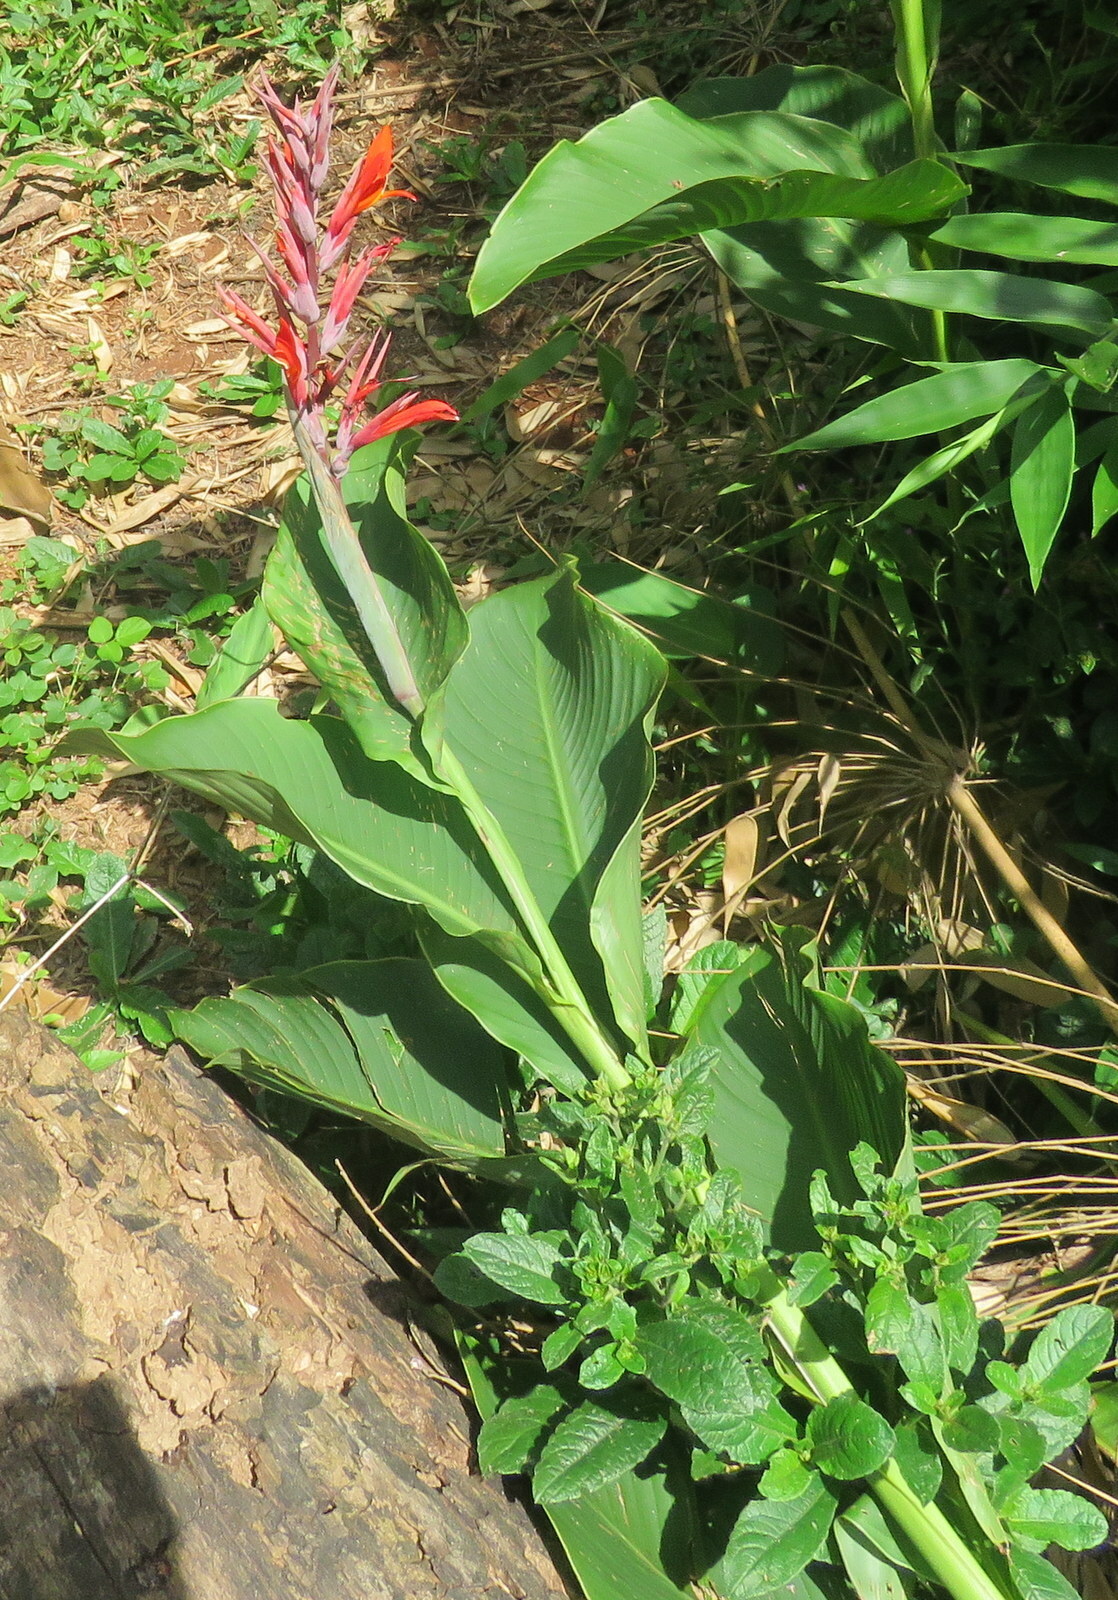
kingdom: Plantae
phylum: Tracheophyta
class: Liliopsida
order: Zingiberales
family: Cannaceae
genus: Canna
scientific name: Canna indica
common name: Indian shot
